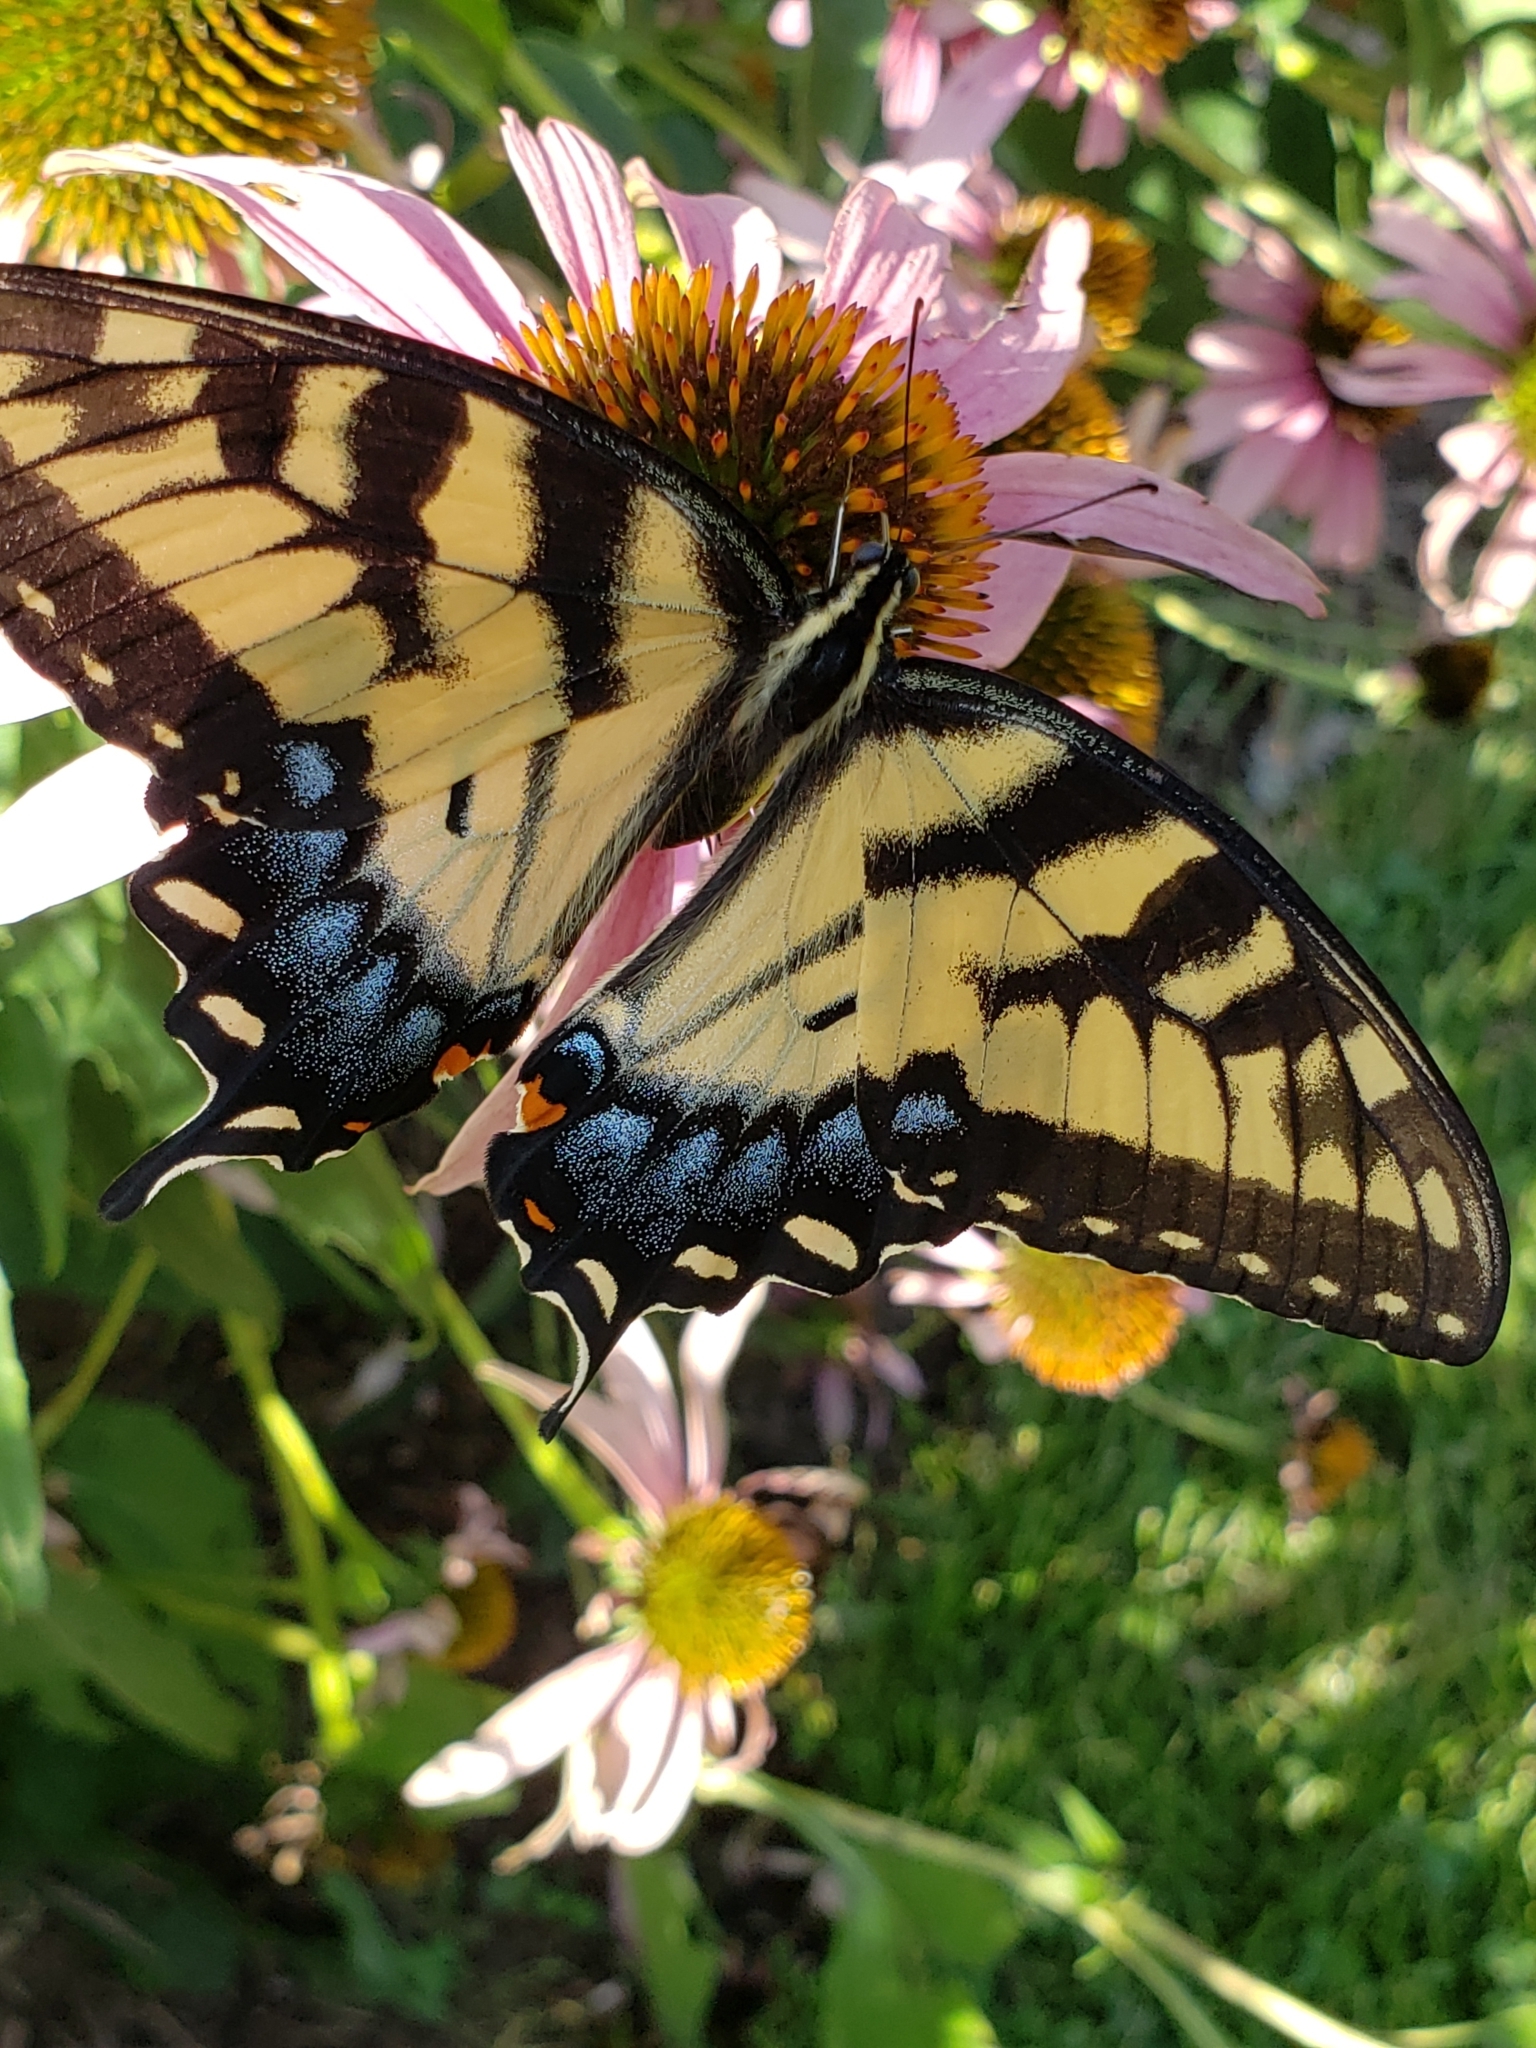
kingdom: Animalia
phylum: Arthropoda
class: Insecta
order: Lepidoptera
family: Papilionidae
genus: Papilio
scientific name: Papilio glaucus
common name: Tiger swallowtail
